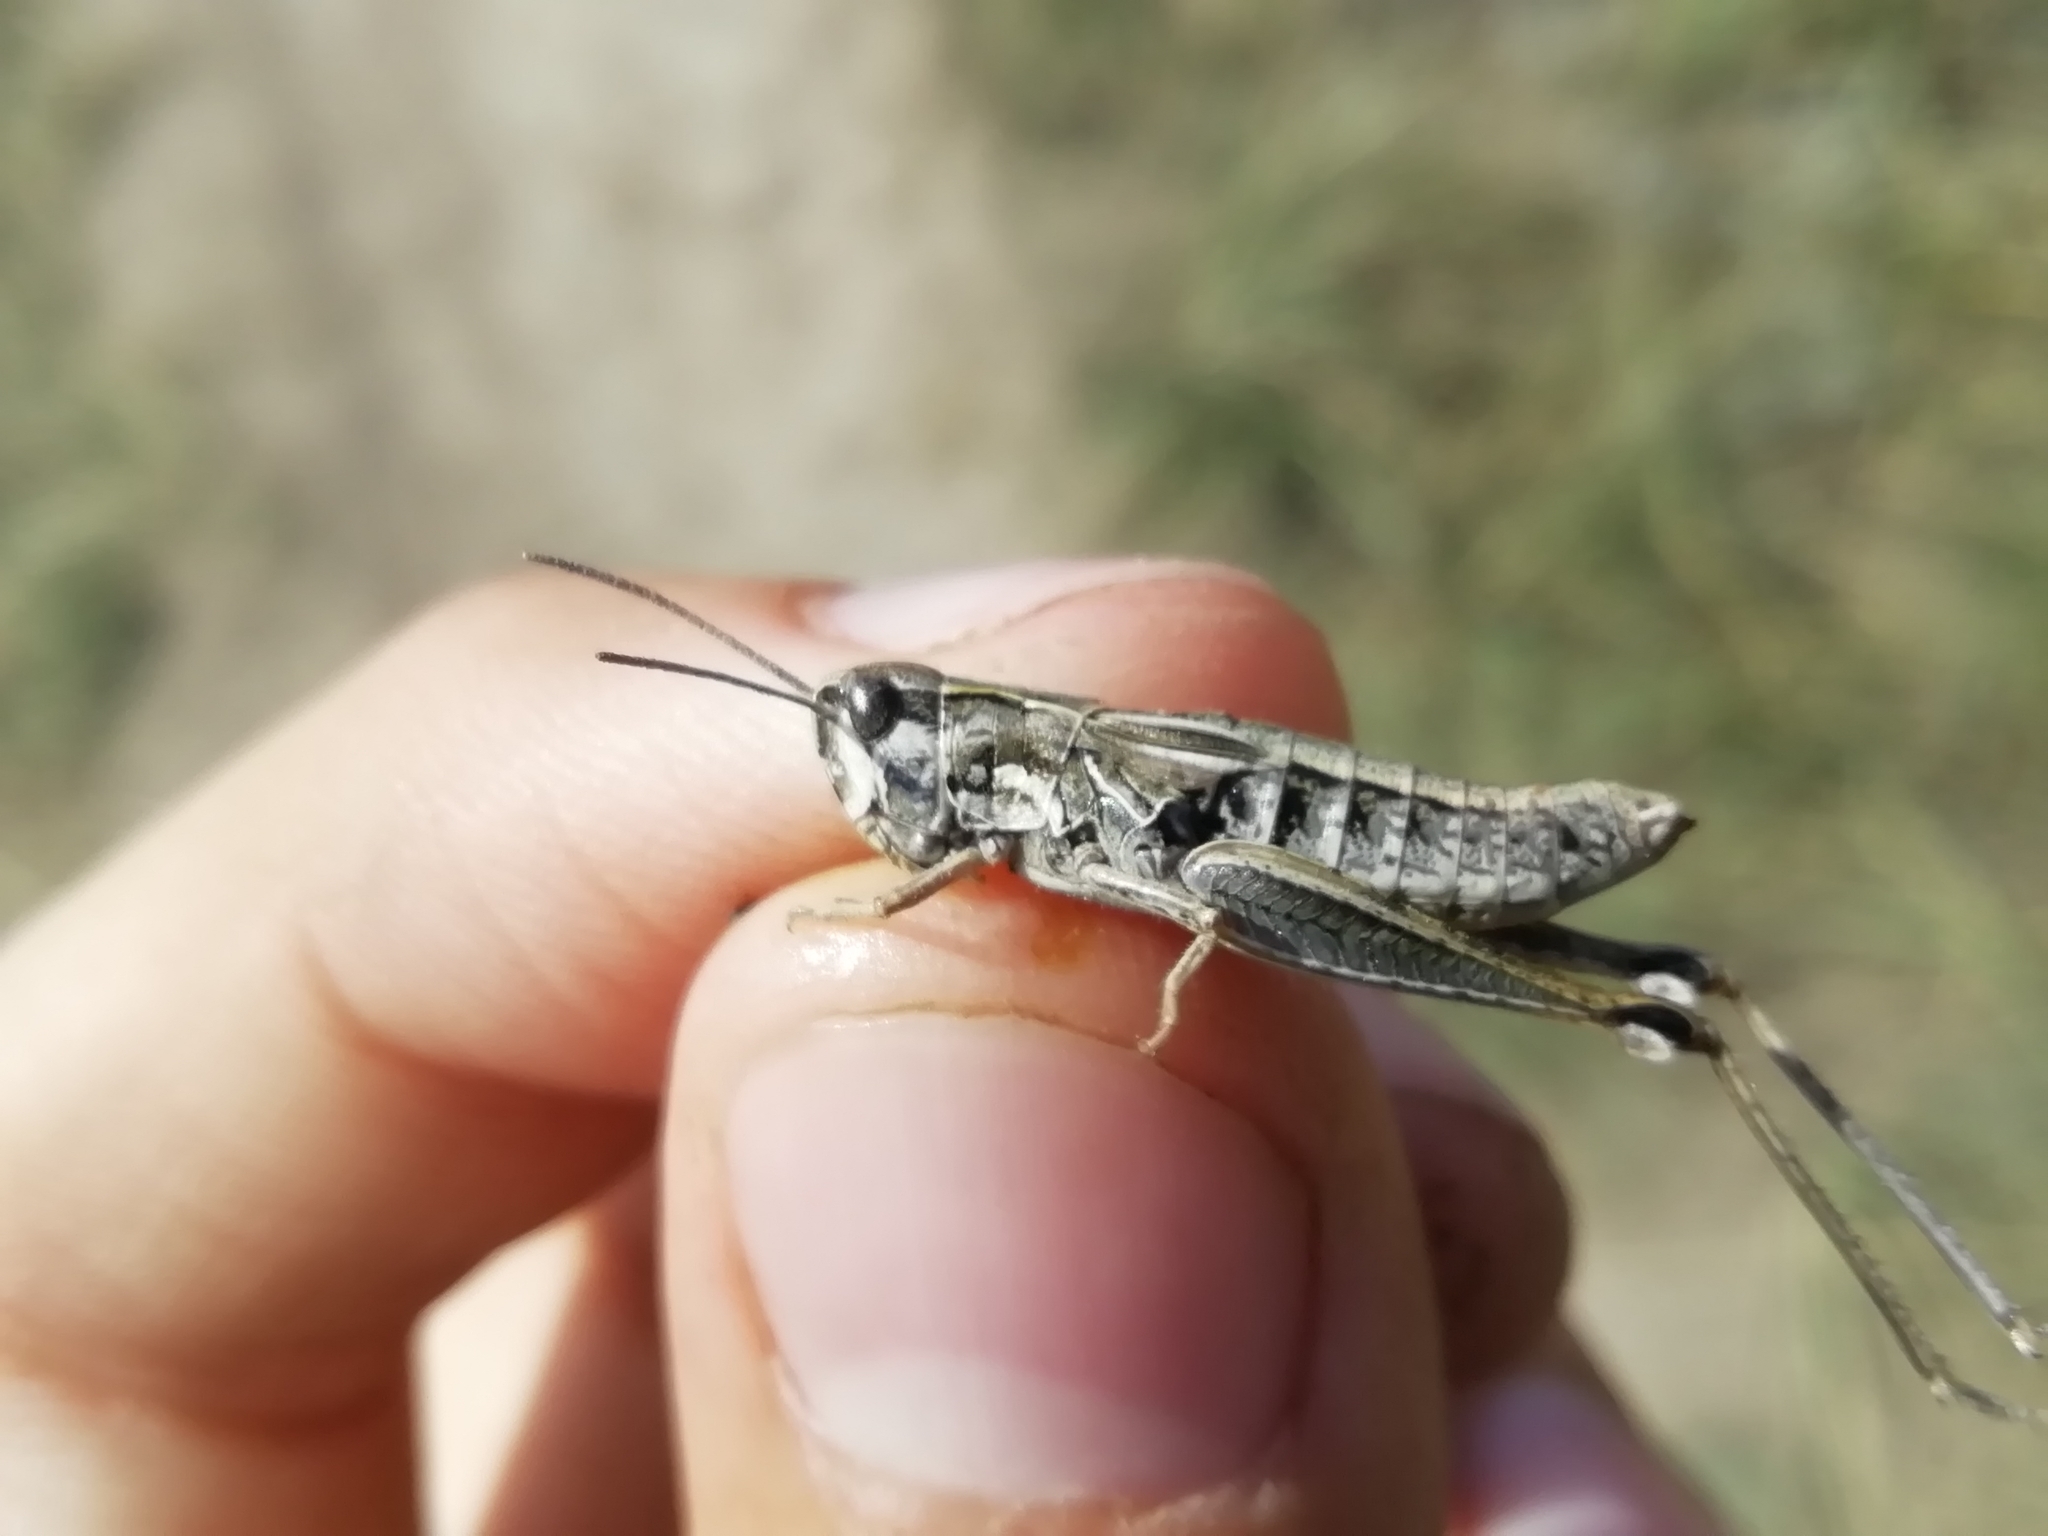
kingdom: Animalia
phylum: Arthropoda
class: Insecta
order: Orthoptera
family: Acrididae
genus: Chorthippus
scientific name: Chorthippus fallax
